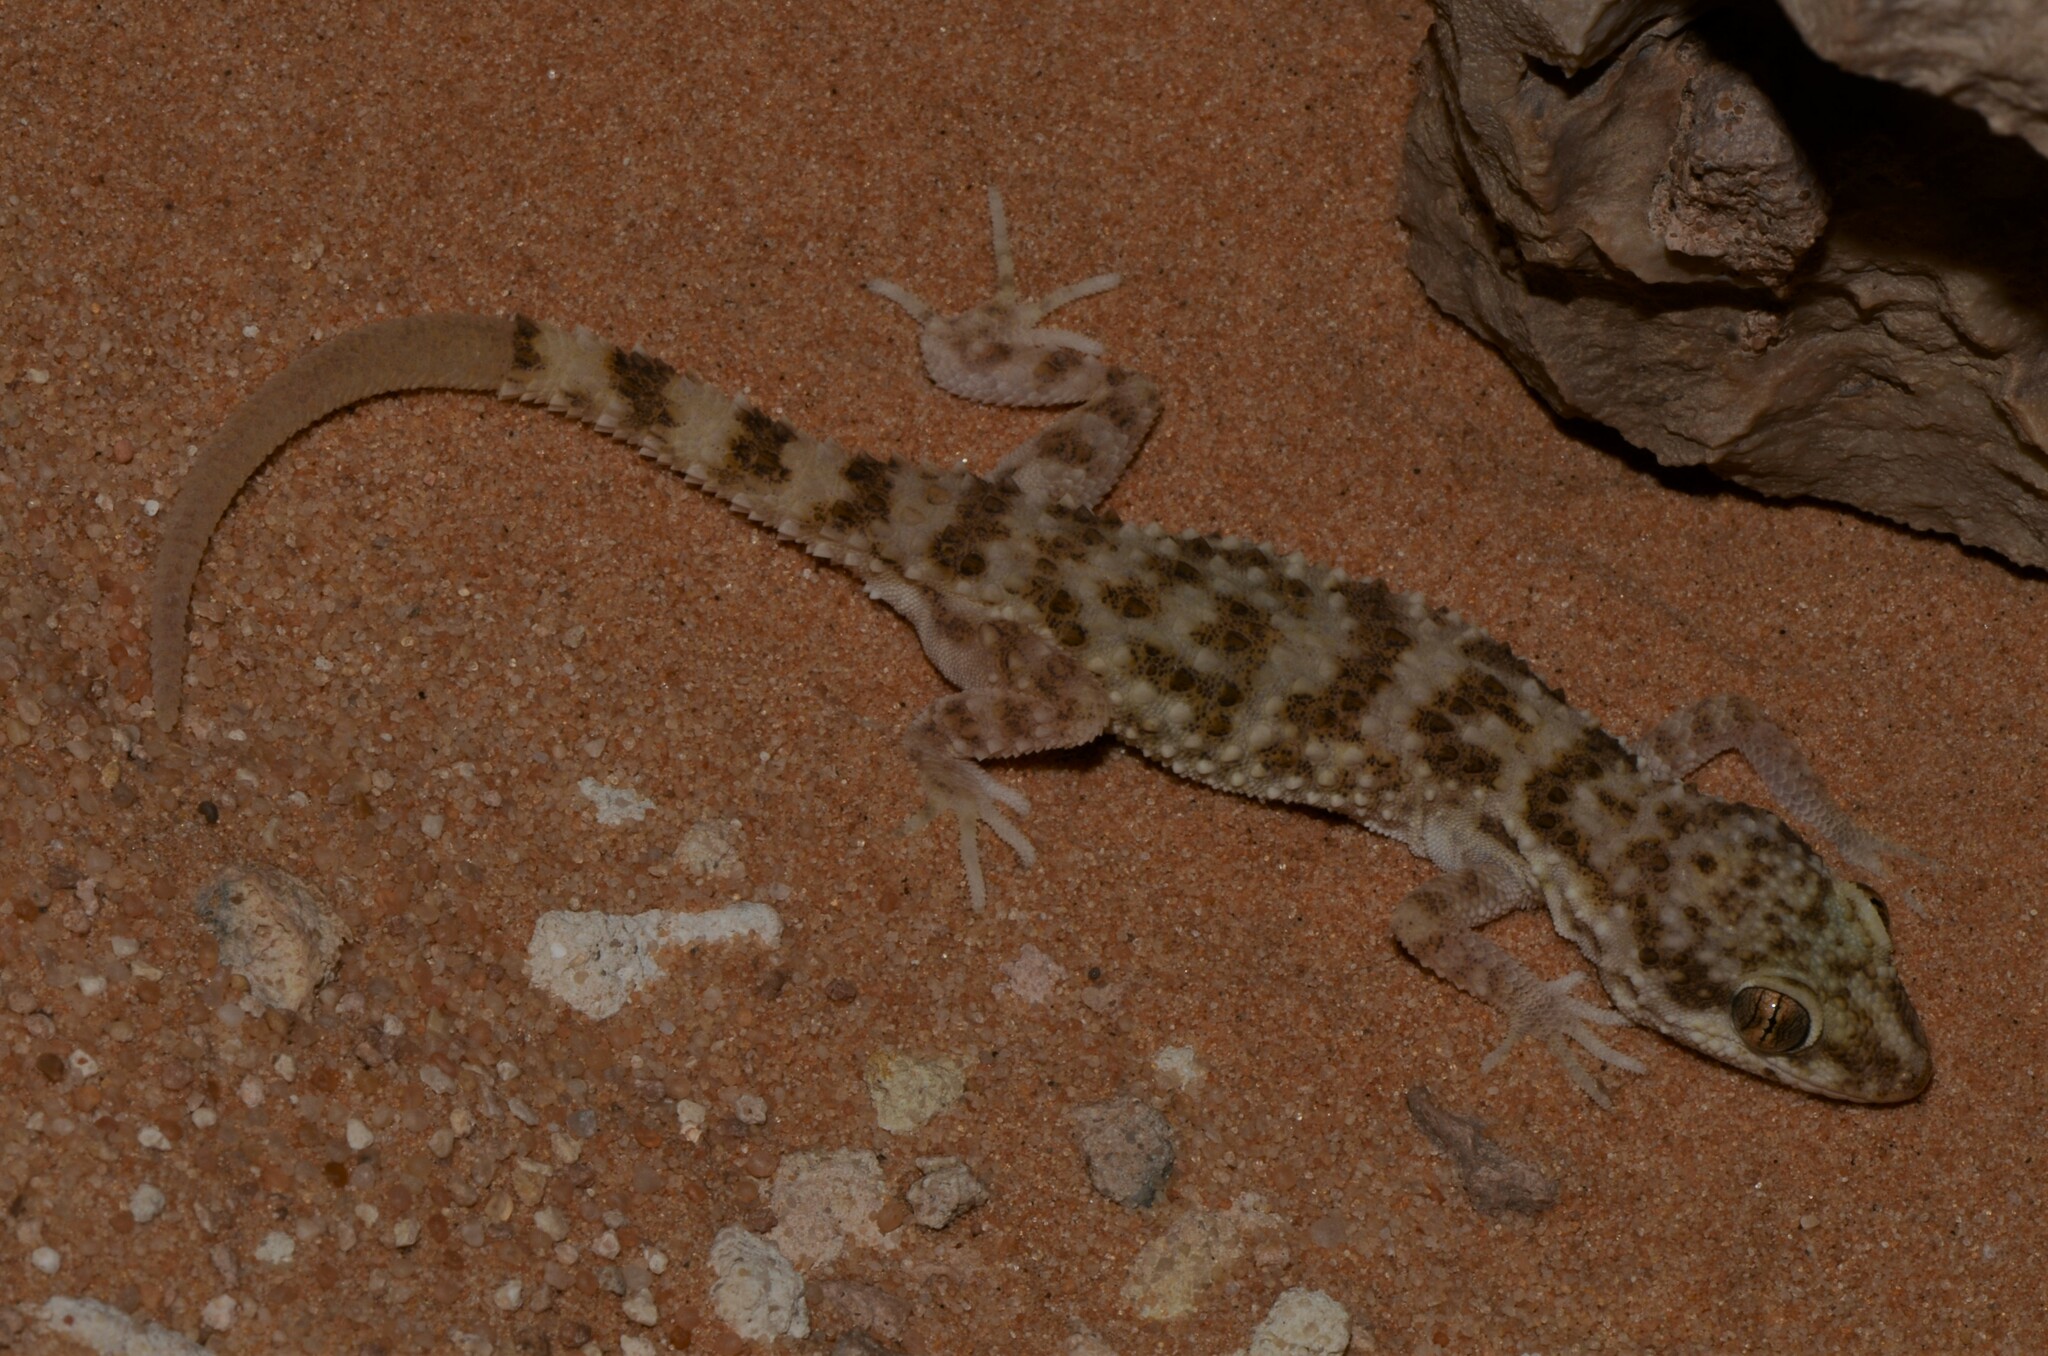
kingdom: Animalia
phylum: Chordata
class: Squamata
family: Gekkonidae
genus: Bunopus
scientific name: Bunopus tuberculatus
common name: Southern tuberculated gecko
